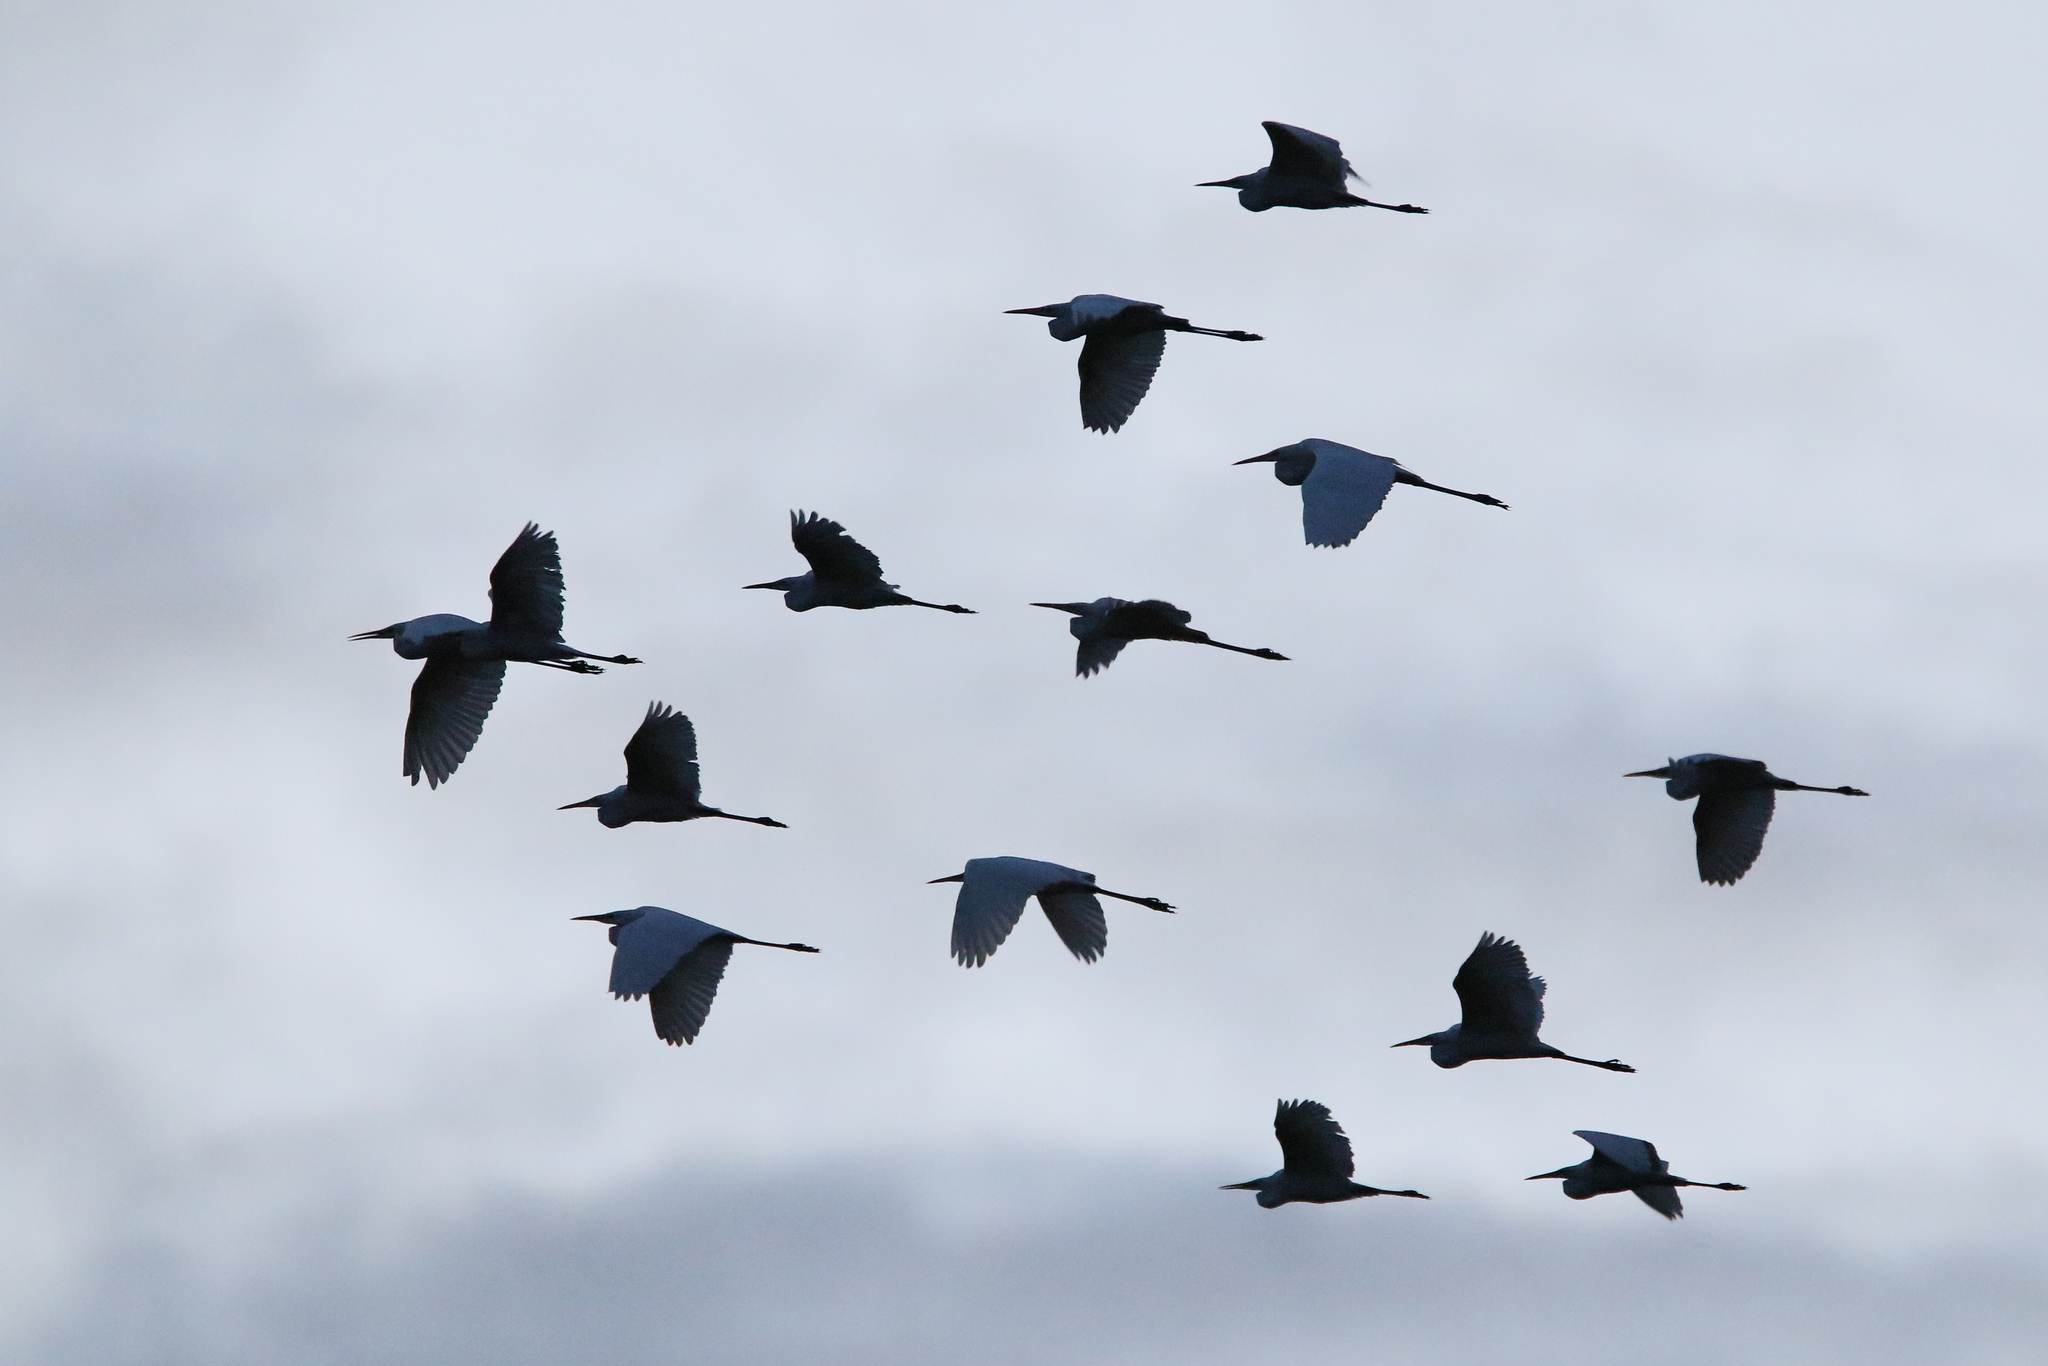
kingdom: Animalia
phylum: Chordata
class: Aves
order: Pelecaniformes
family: Ardeidae
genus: Ardea
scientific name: Ardea alba
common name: Great egret
